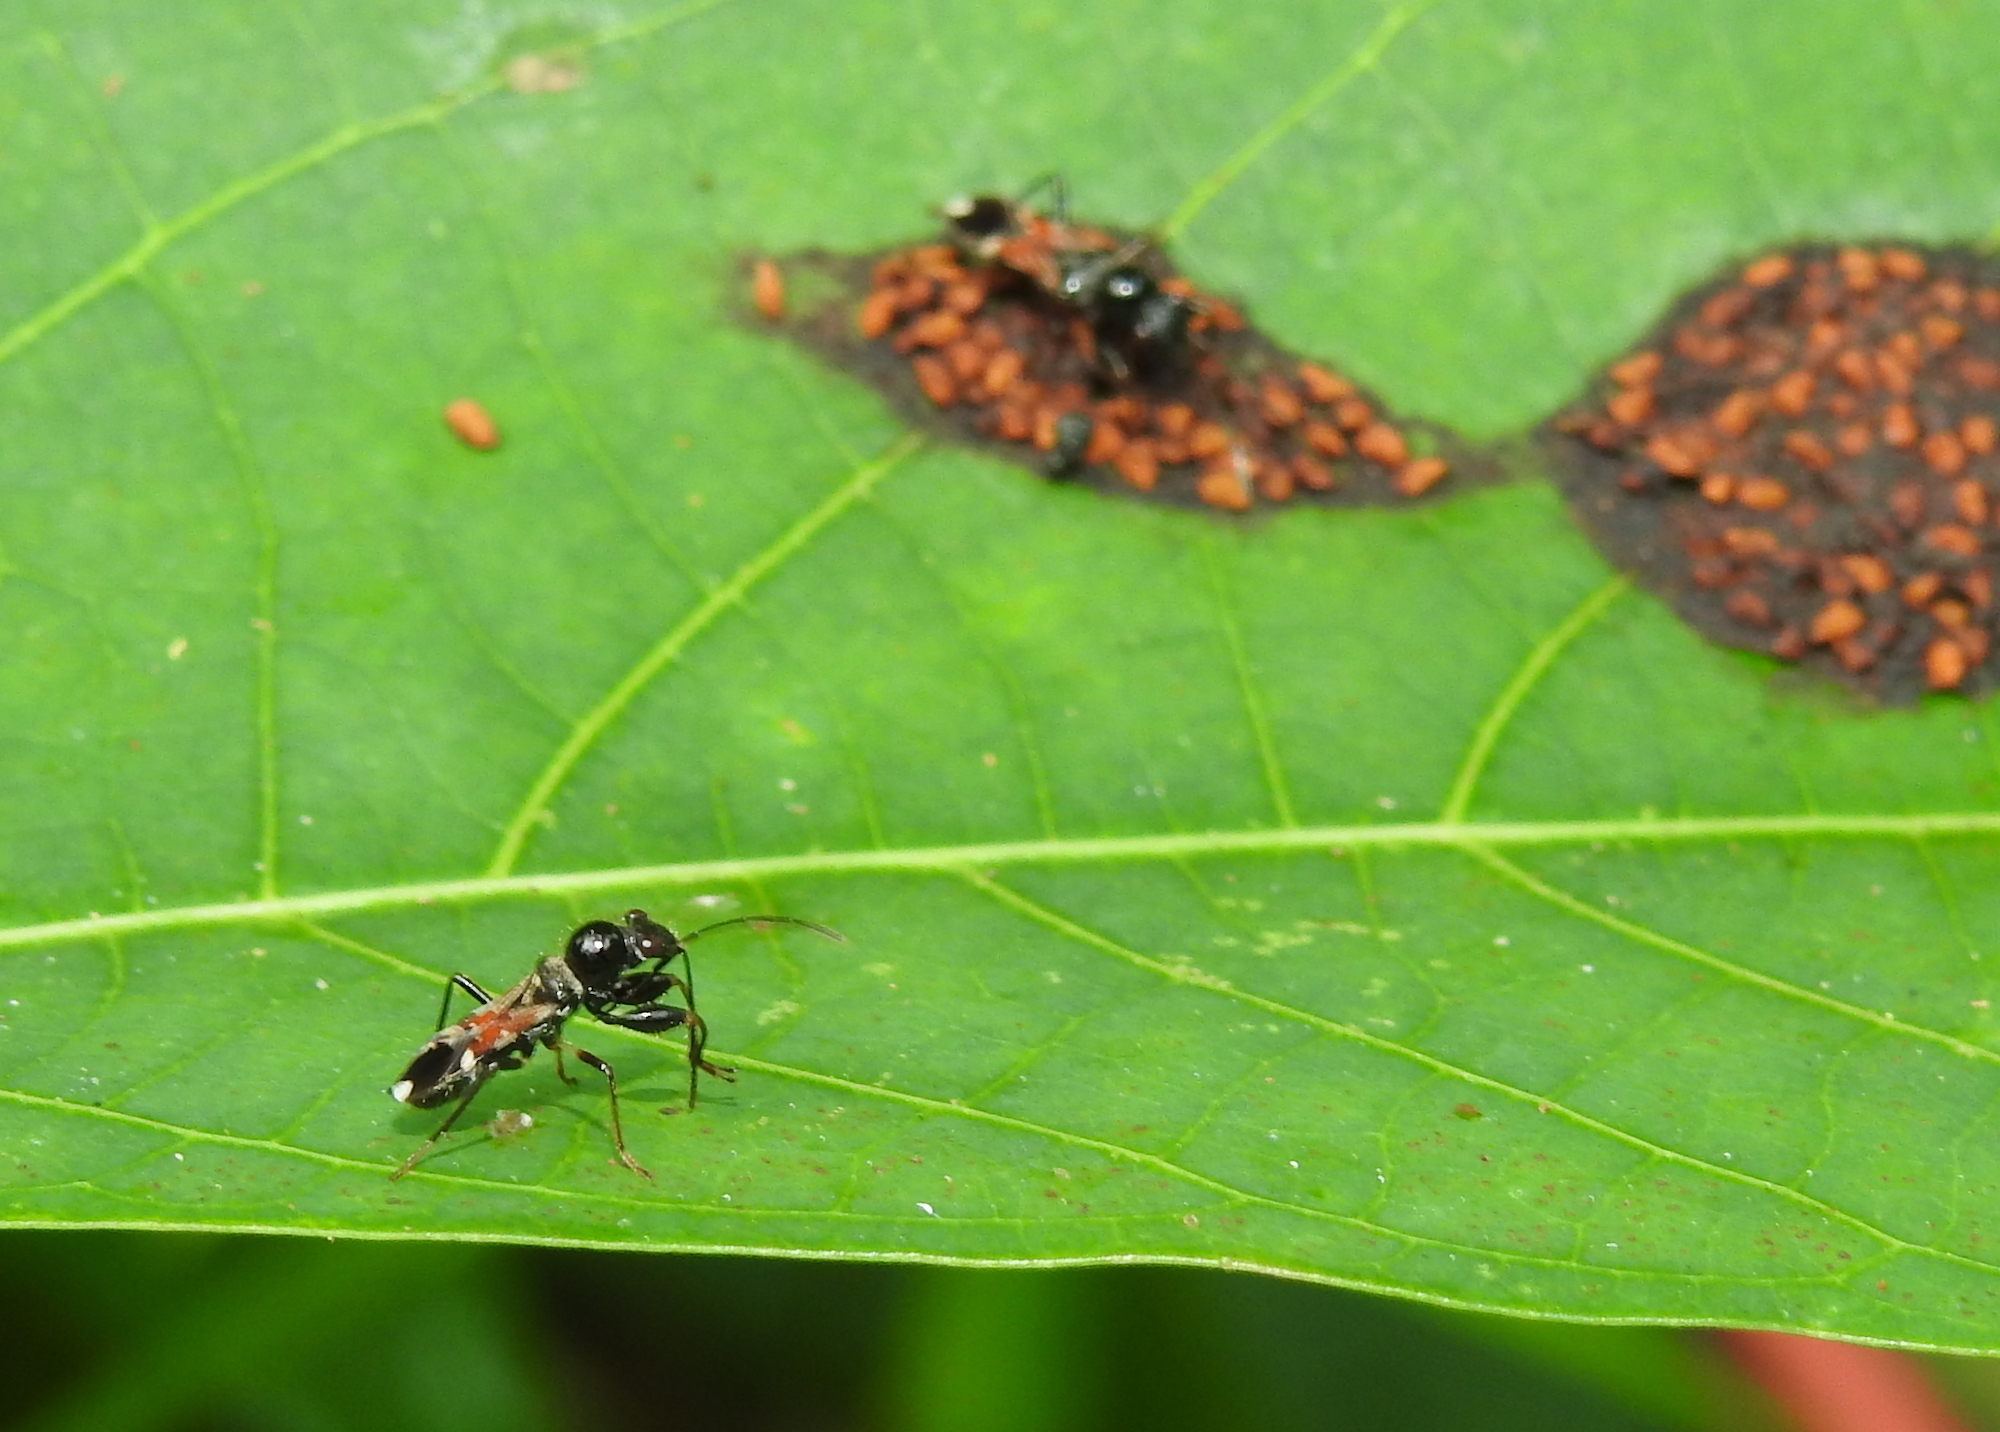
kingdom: Animalia
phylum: Arthropoda
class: Insecta
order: Hemiptera
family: Rhyparochromidae
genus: Caridops
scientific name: Caridops globicollis
